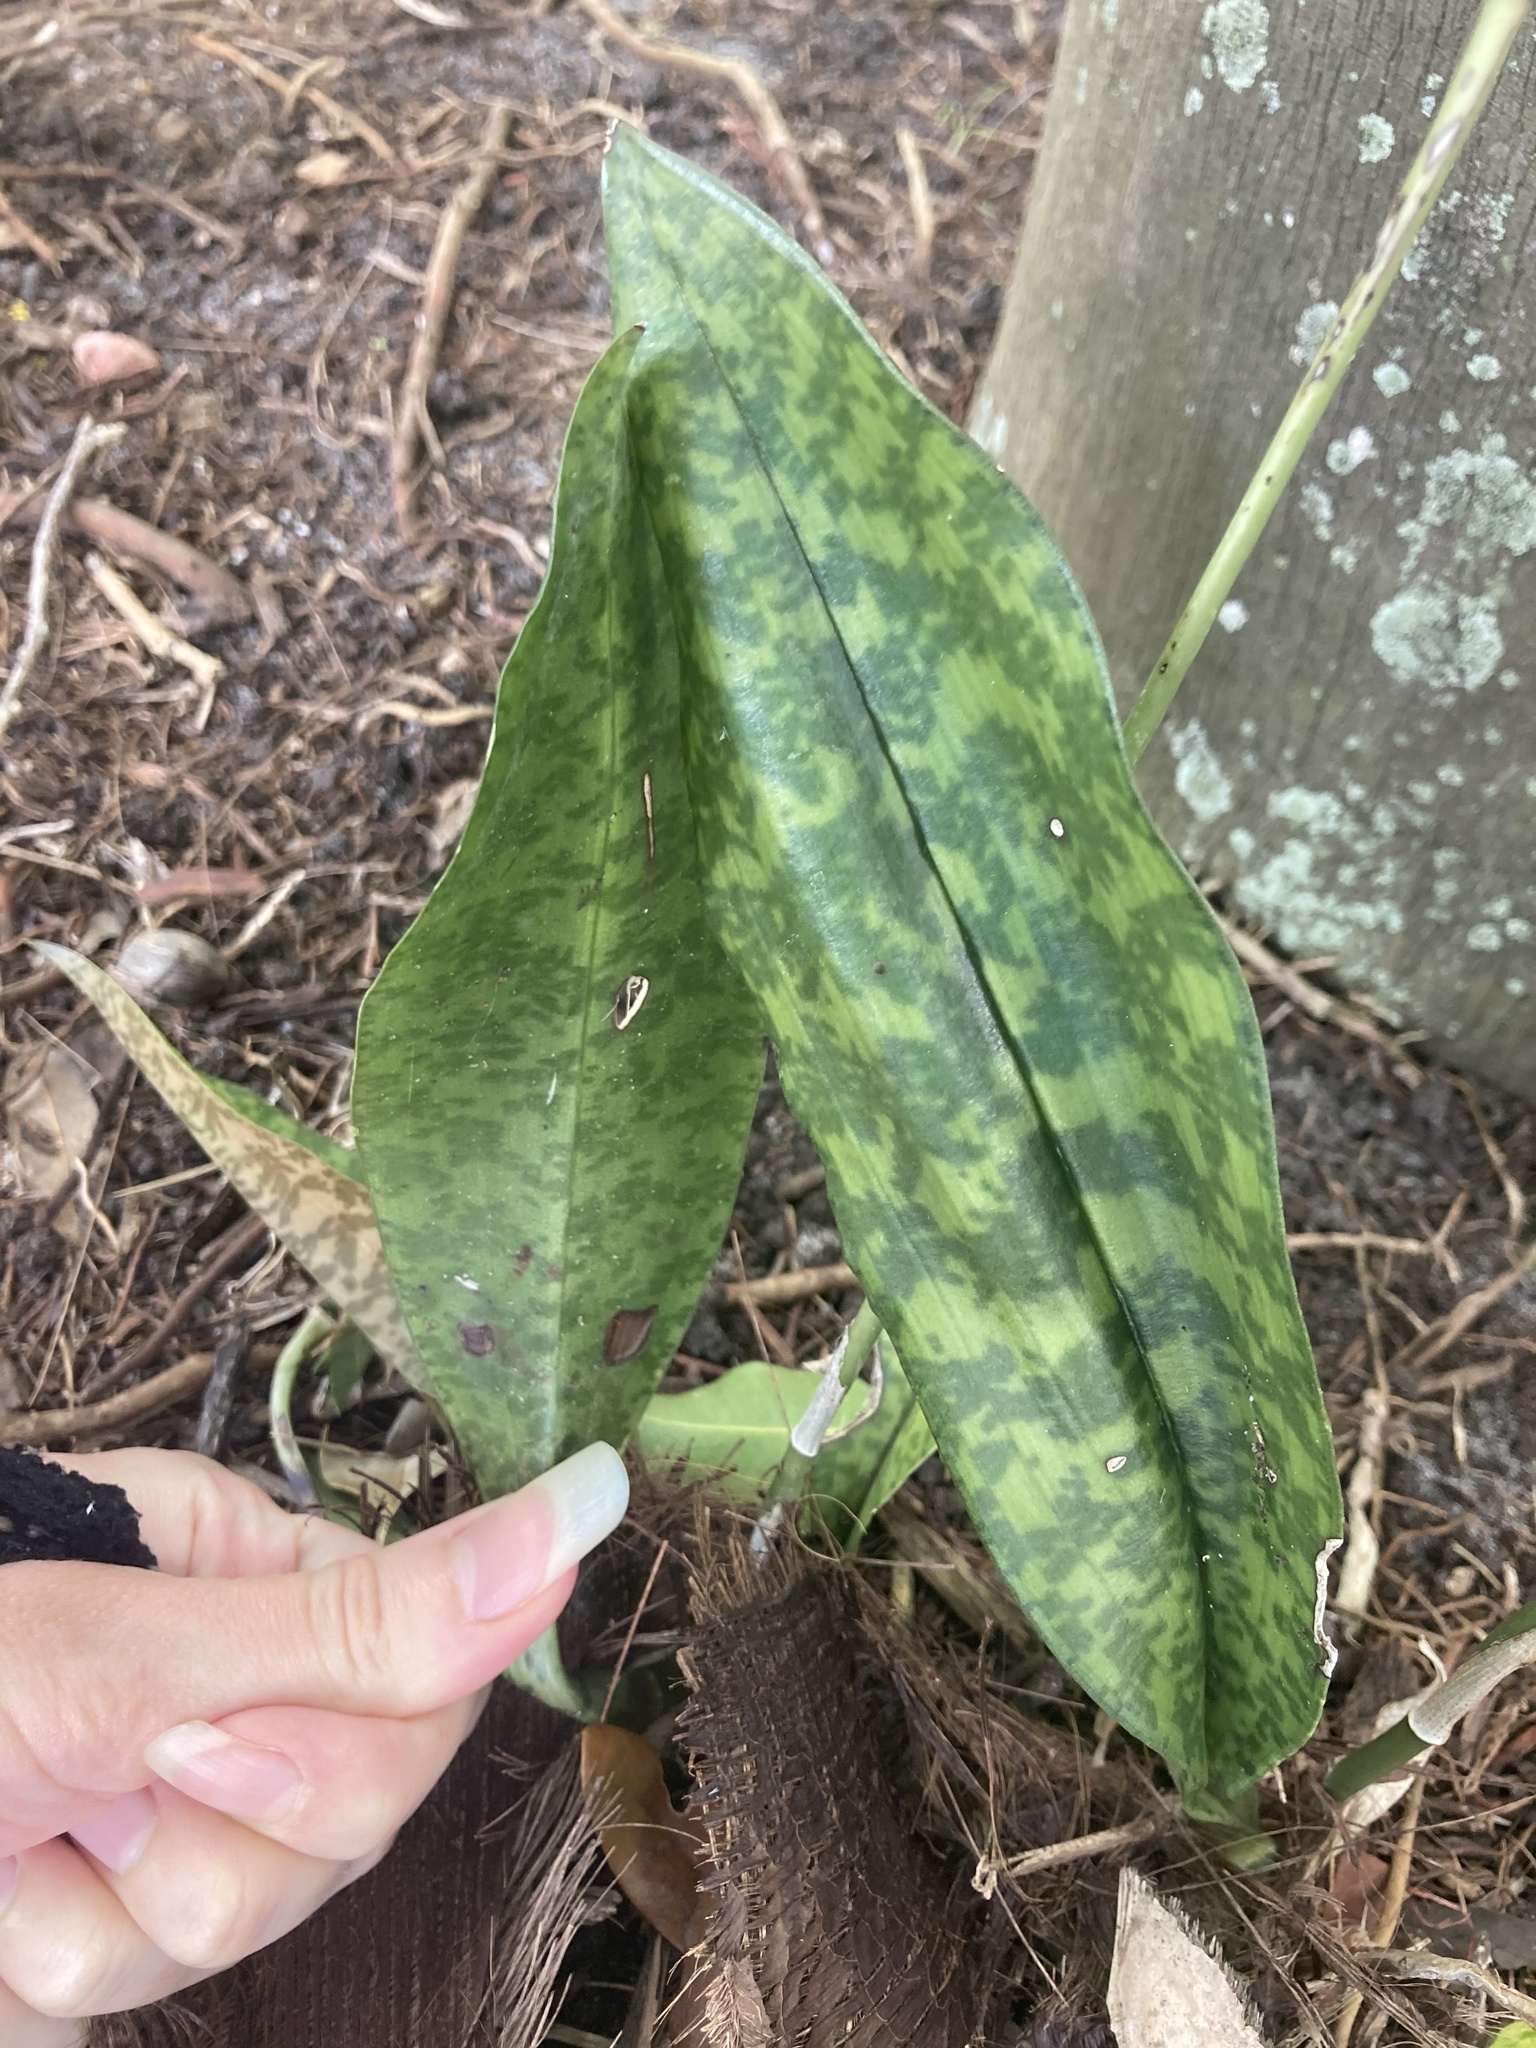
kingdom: Plantae
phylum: Tracheophyta
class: Liliopsida
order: Asparagales
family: Orchidaceae
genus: Eulophia
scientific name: Eulophia maculata
